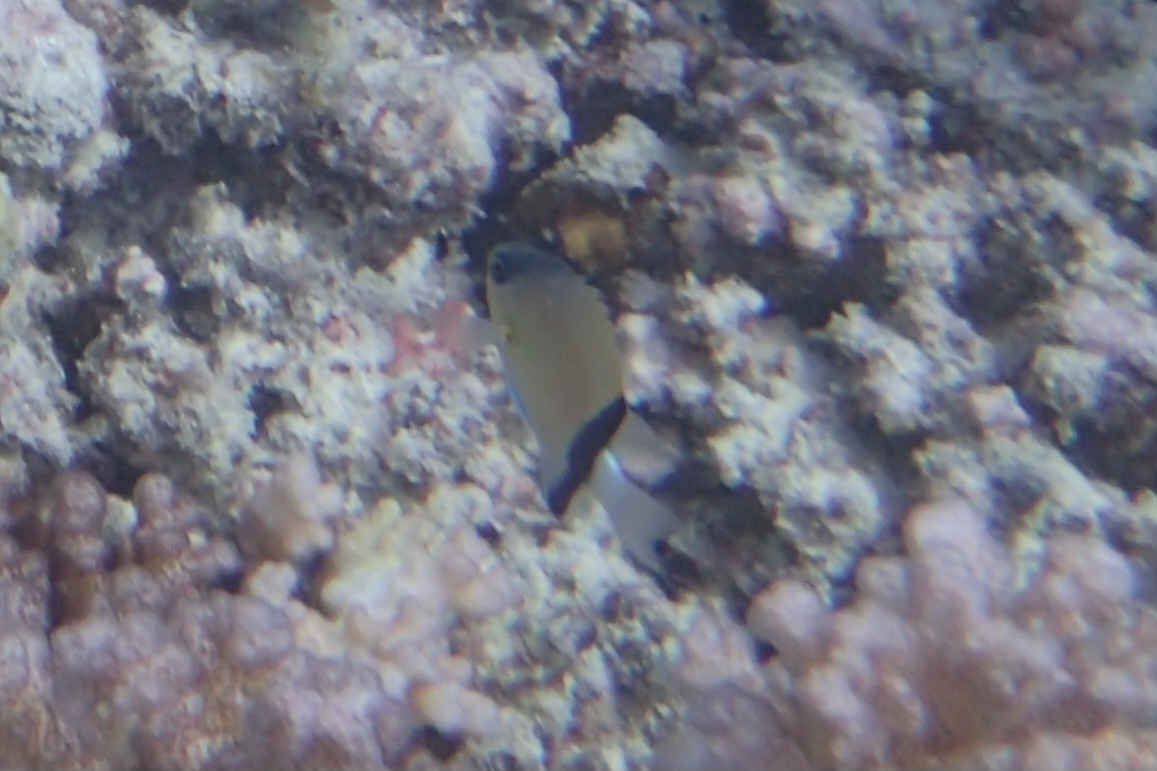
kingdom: Animalia
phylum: Chordata
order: Perciformes
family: Pomacentridae
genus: Chromis
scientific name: Chromis retrofasciata
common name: Black-bar chromis
